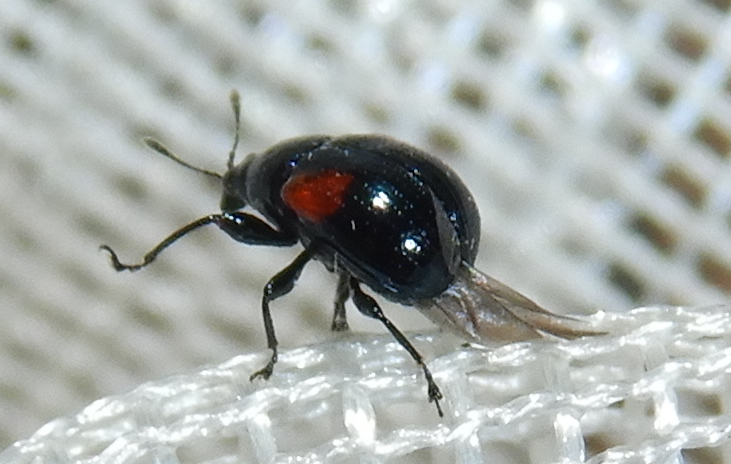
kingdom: Animalia
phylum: Arthropoda
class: Insecta
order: Coleoptera
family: Attelabidae
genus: Attelabus
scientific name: Attelabus bipustulatus
